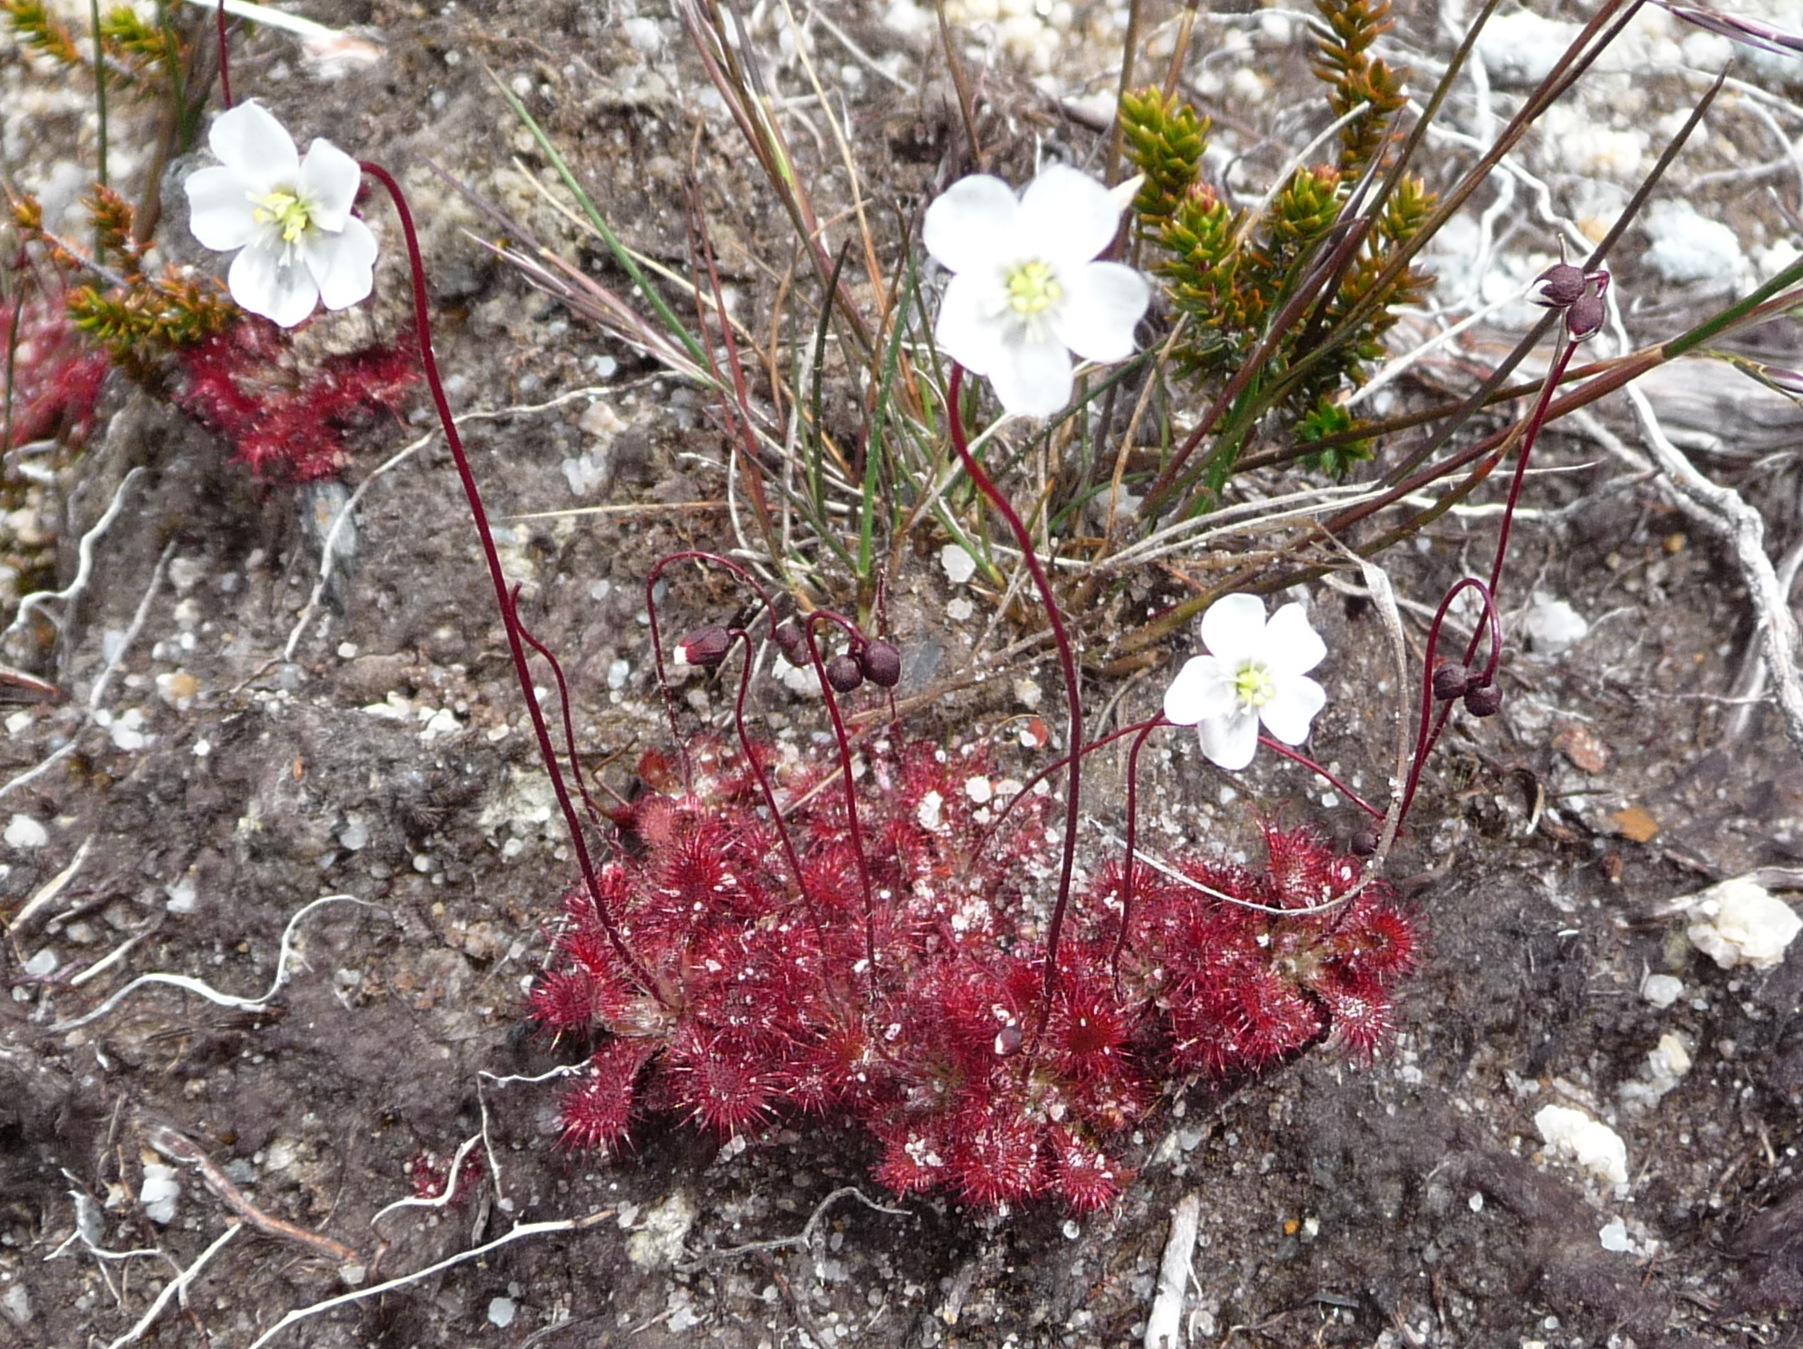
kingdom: Plantae
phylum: Tracheophyta
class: Magnoliopsida
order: Caryophyllales
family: Droseraceae
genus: Drosera
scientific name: Drosera spatulata
